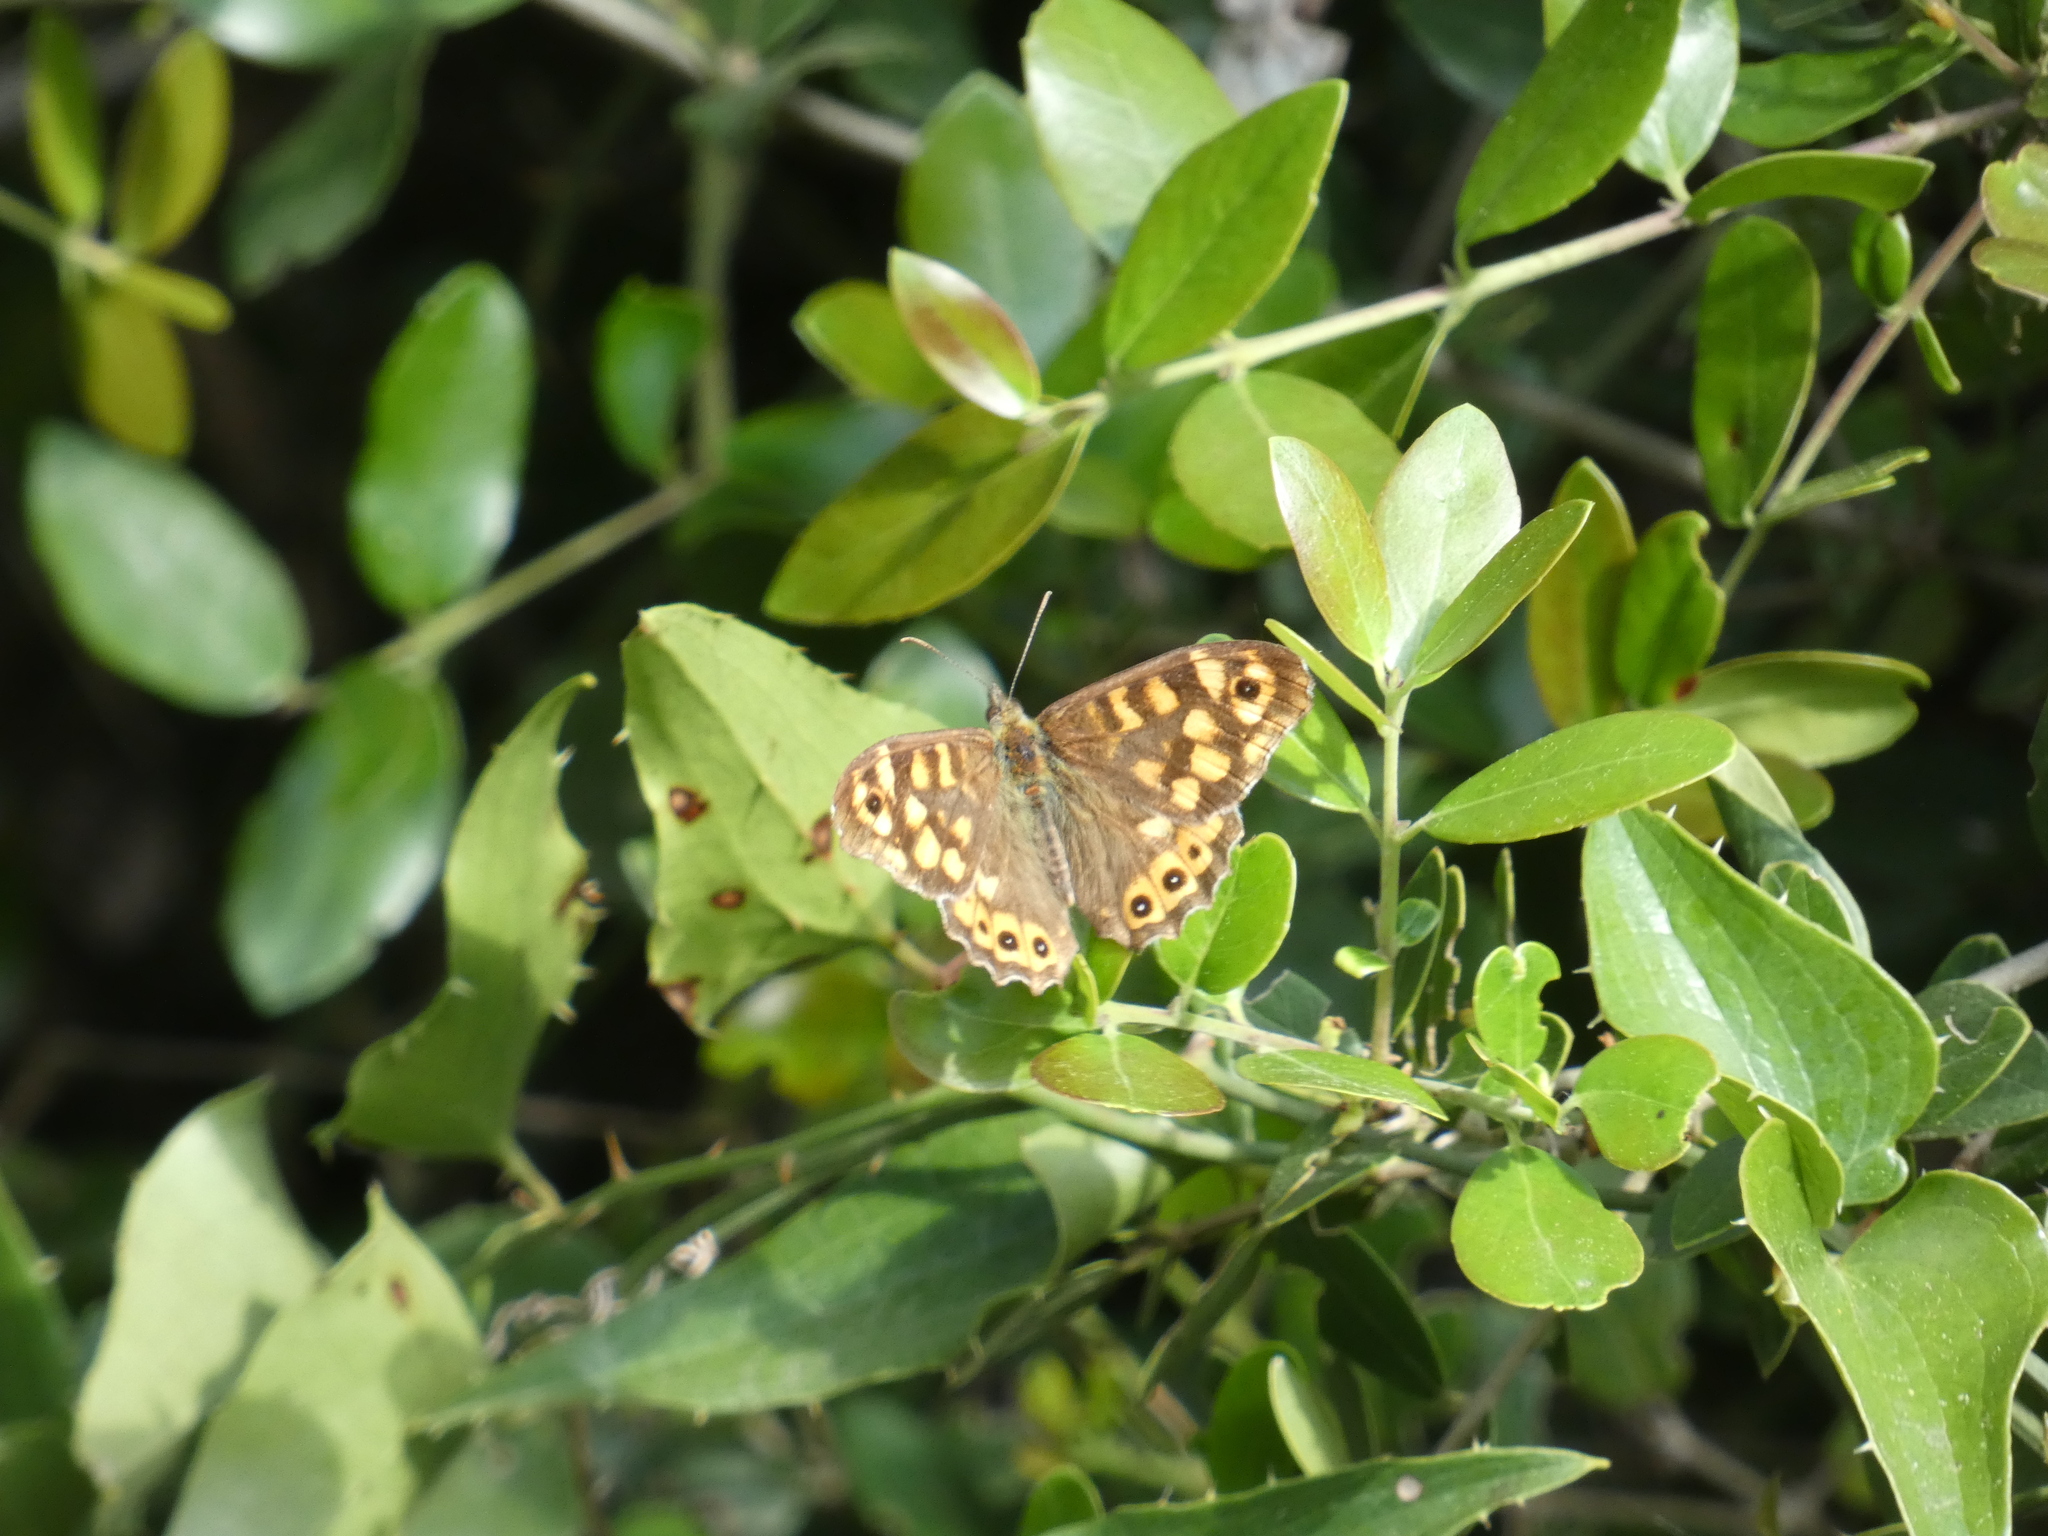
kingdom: Animalia
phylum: Arthropoda
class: Insecta
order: Lepidoptera
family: Nymphalidae
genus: Pararge
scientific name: Pararge aegeria
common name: Speckled wood
